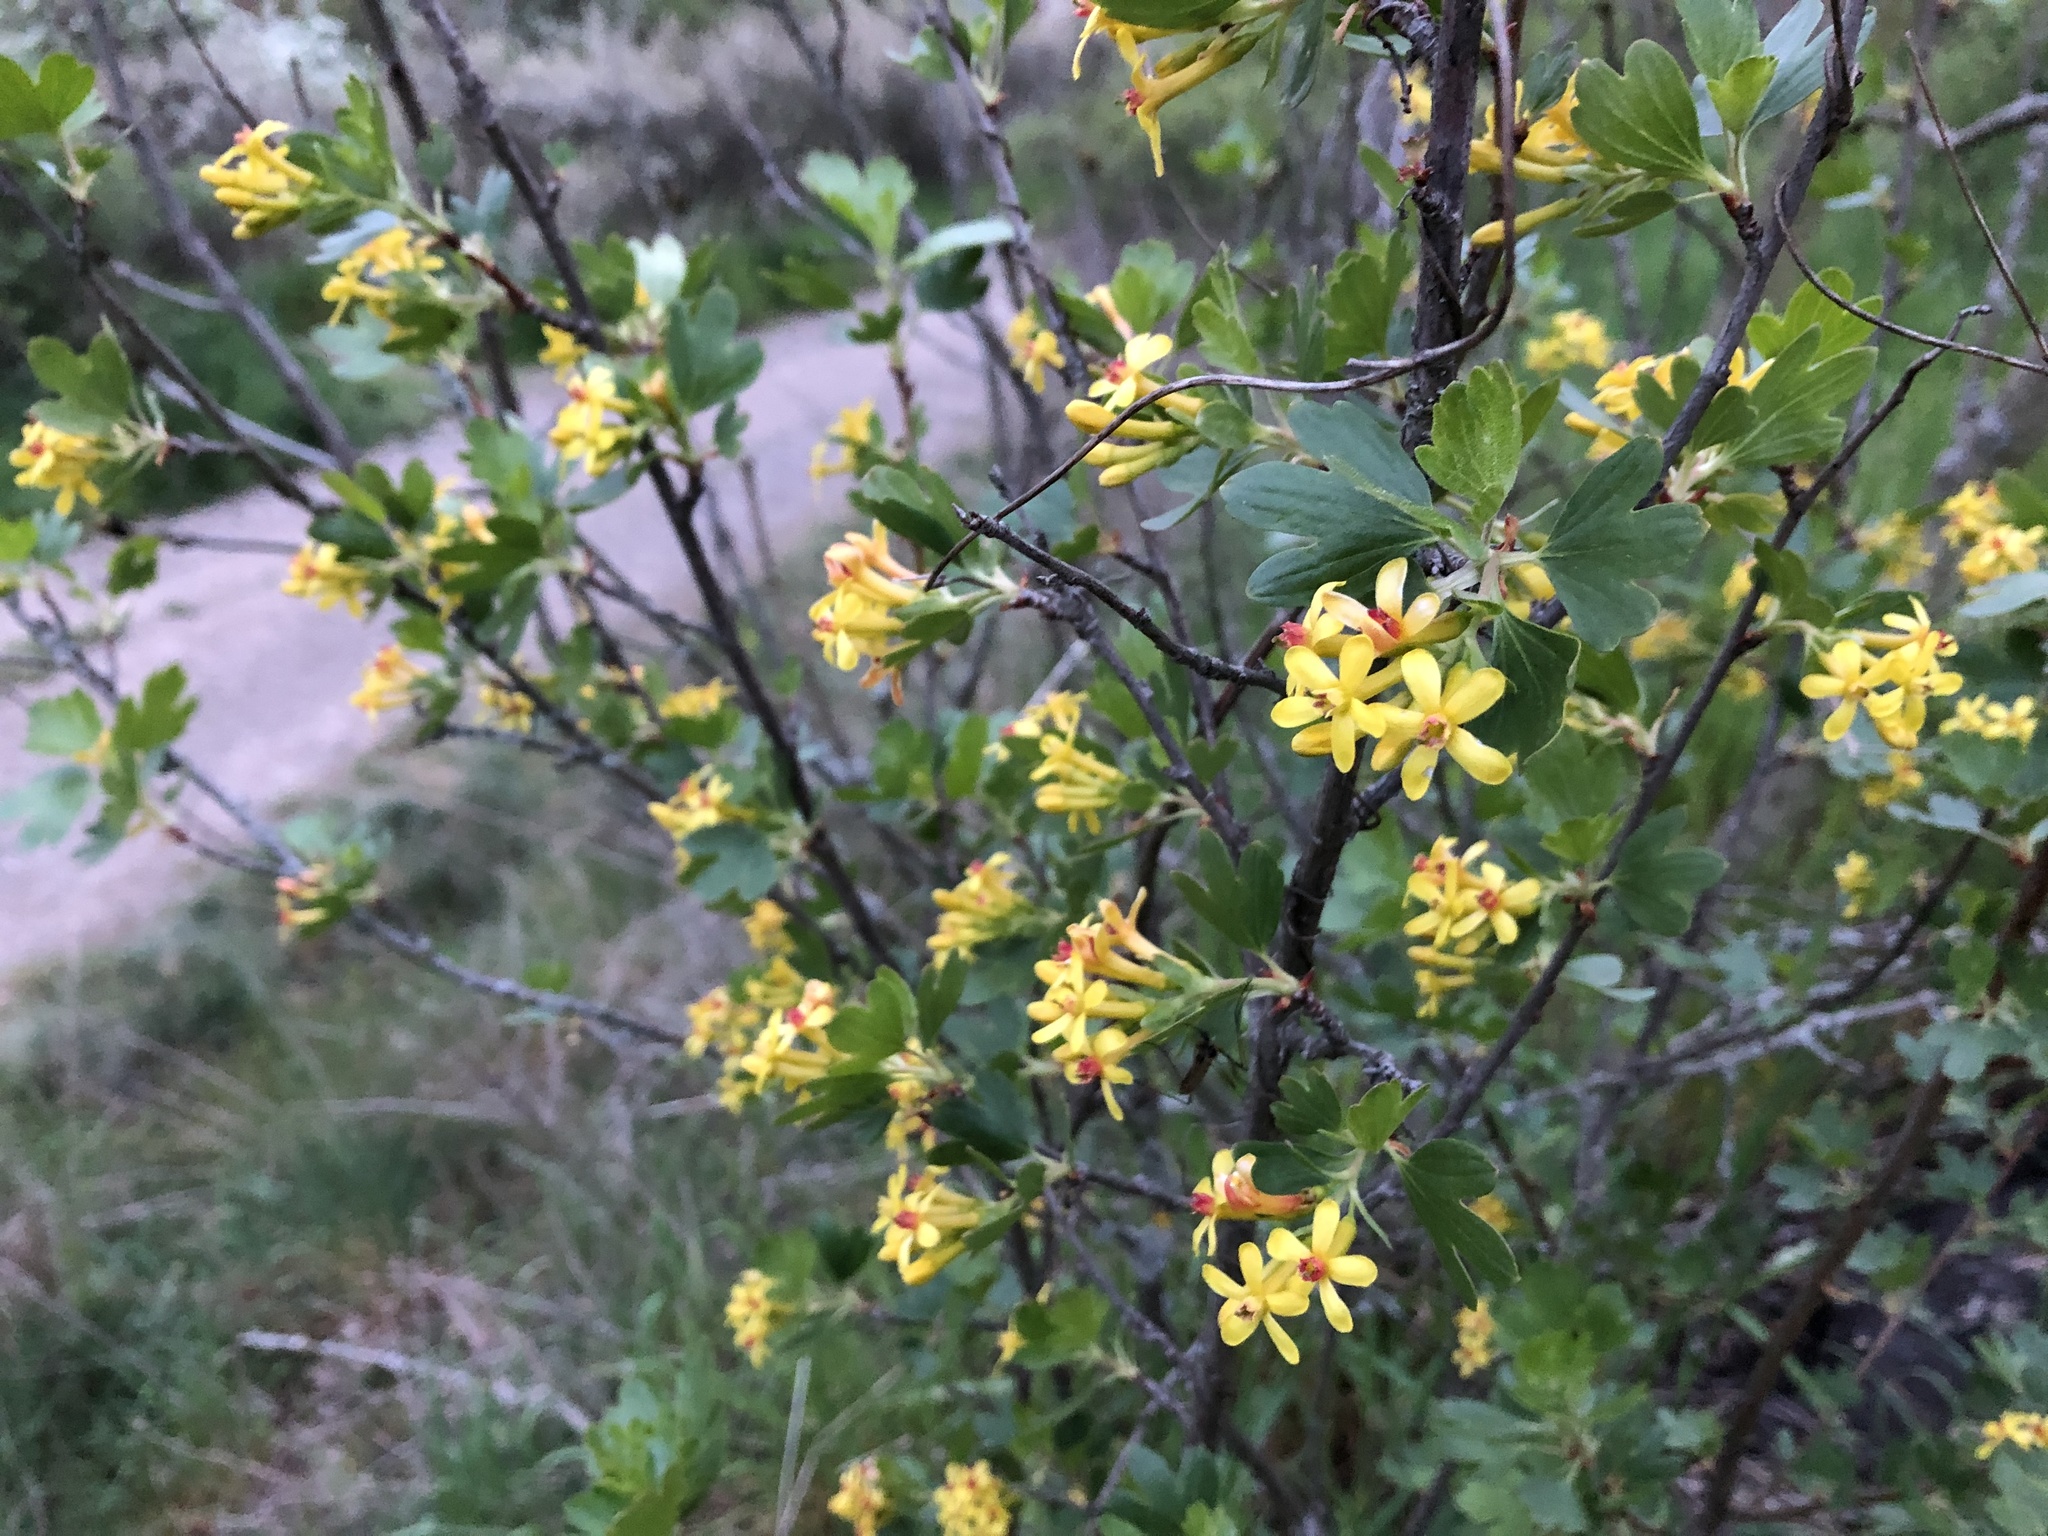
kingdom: Plantae
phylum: Tracheophyta
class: Magnoliopsida
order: Saxifragales
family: Grossulariaceae
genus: Ribes
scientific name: Ribes aureum
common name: Golden currant
